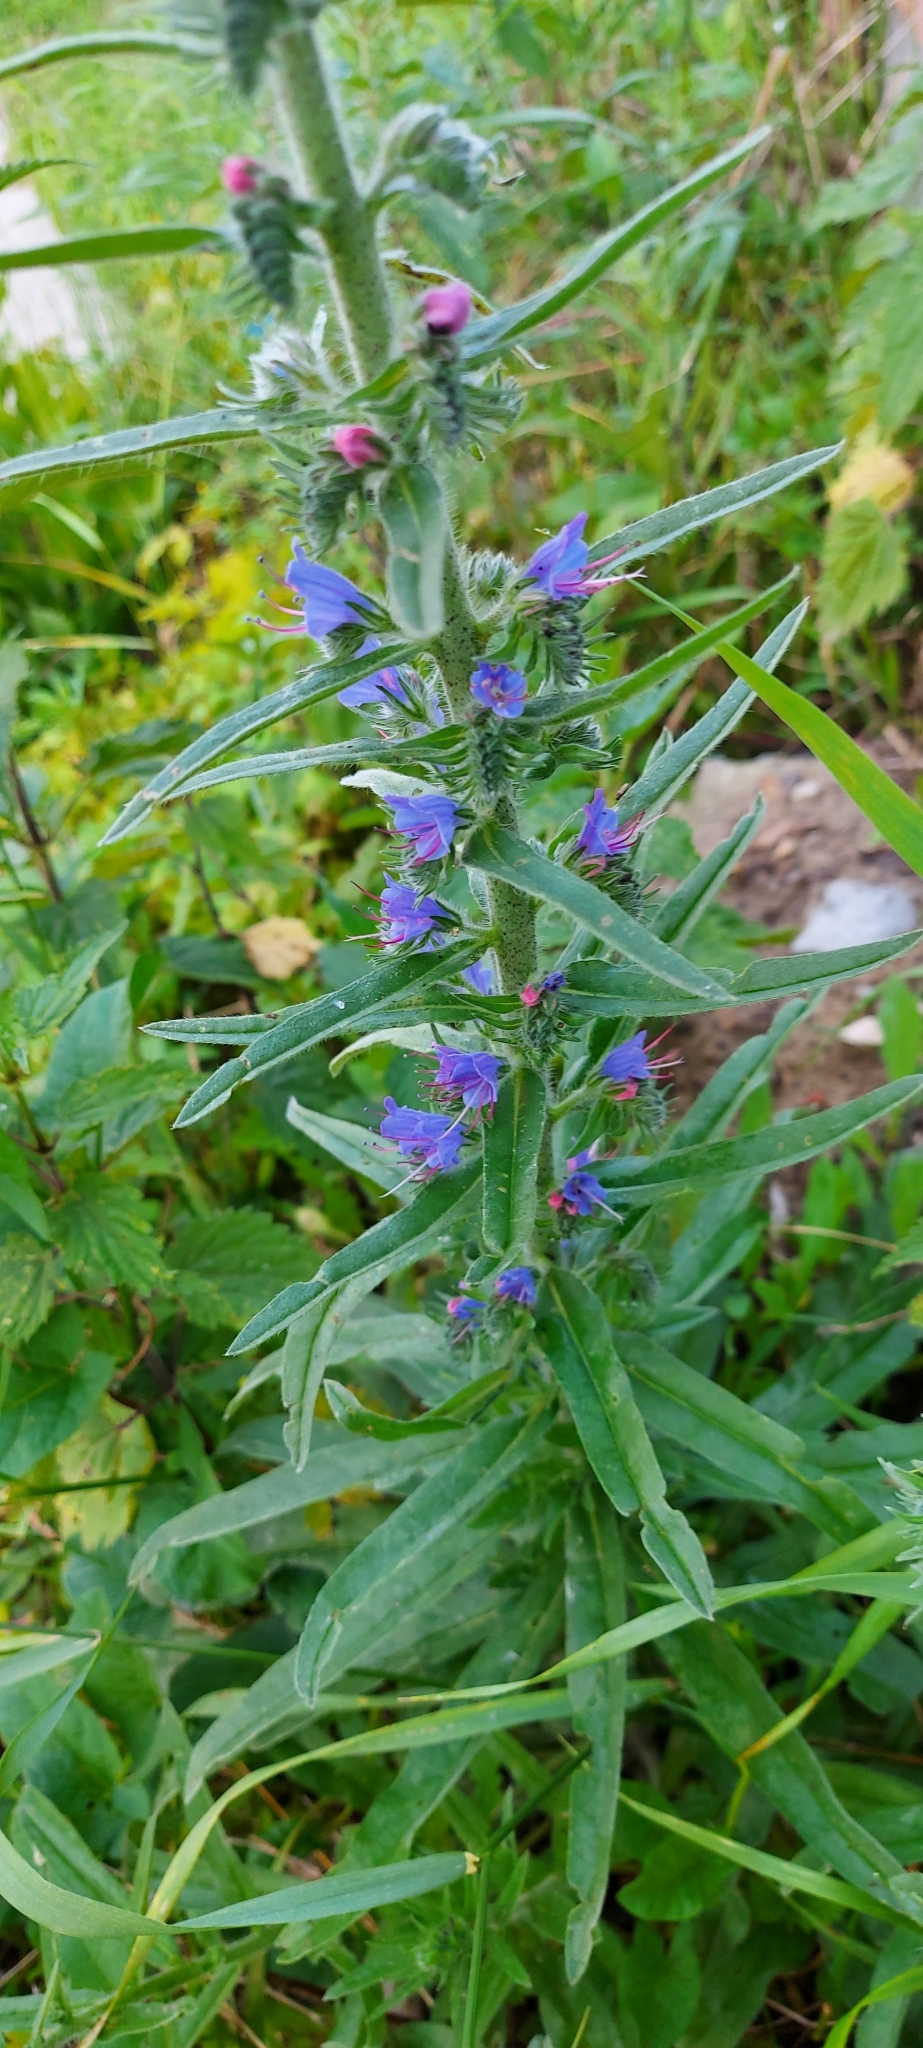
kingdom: Plantae
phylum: Tracheophyta
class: Magnoliopsida
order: Boraginales
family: Boraginaceae
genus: Echium
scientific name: Echium vulgare
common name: Common viper's bugloss
